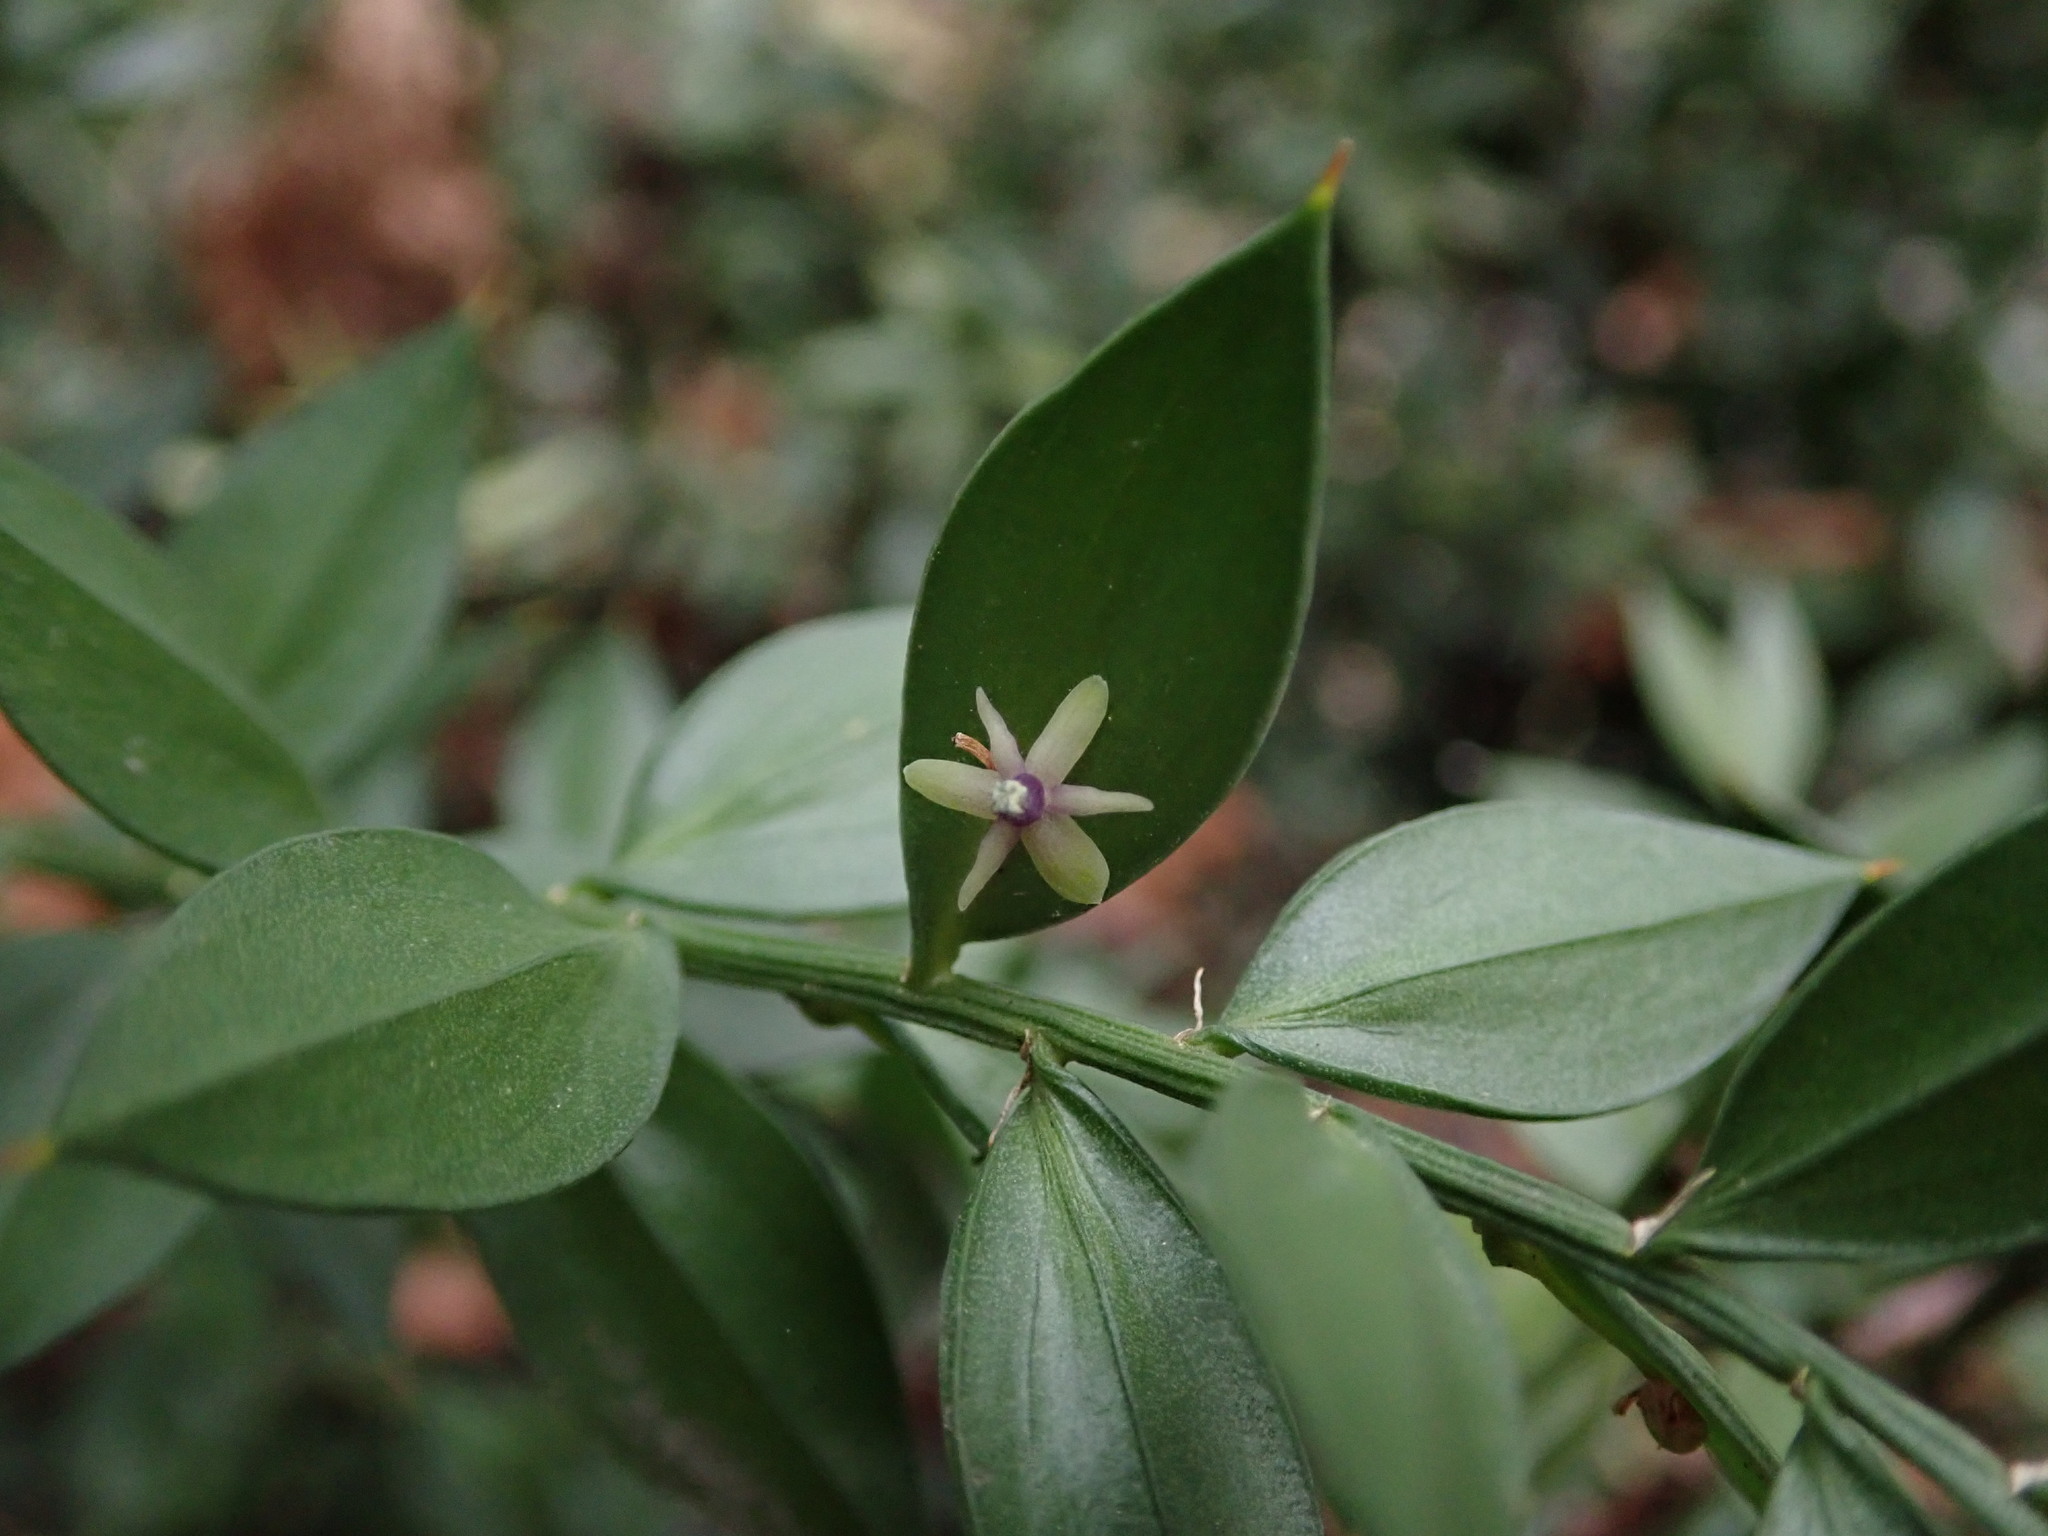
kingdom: Plantae
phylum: Tracheophyta
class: Liliopsida
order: Asparagales
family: Asparagaceae
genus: Ruscus
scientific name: Ruscus aculeatus
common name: Butcher's-broom
